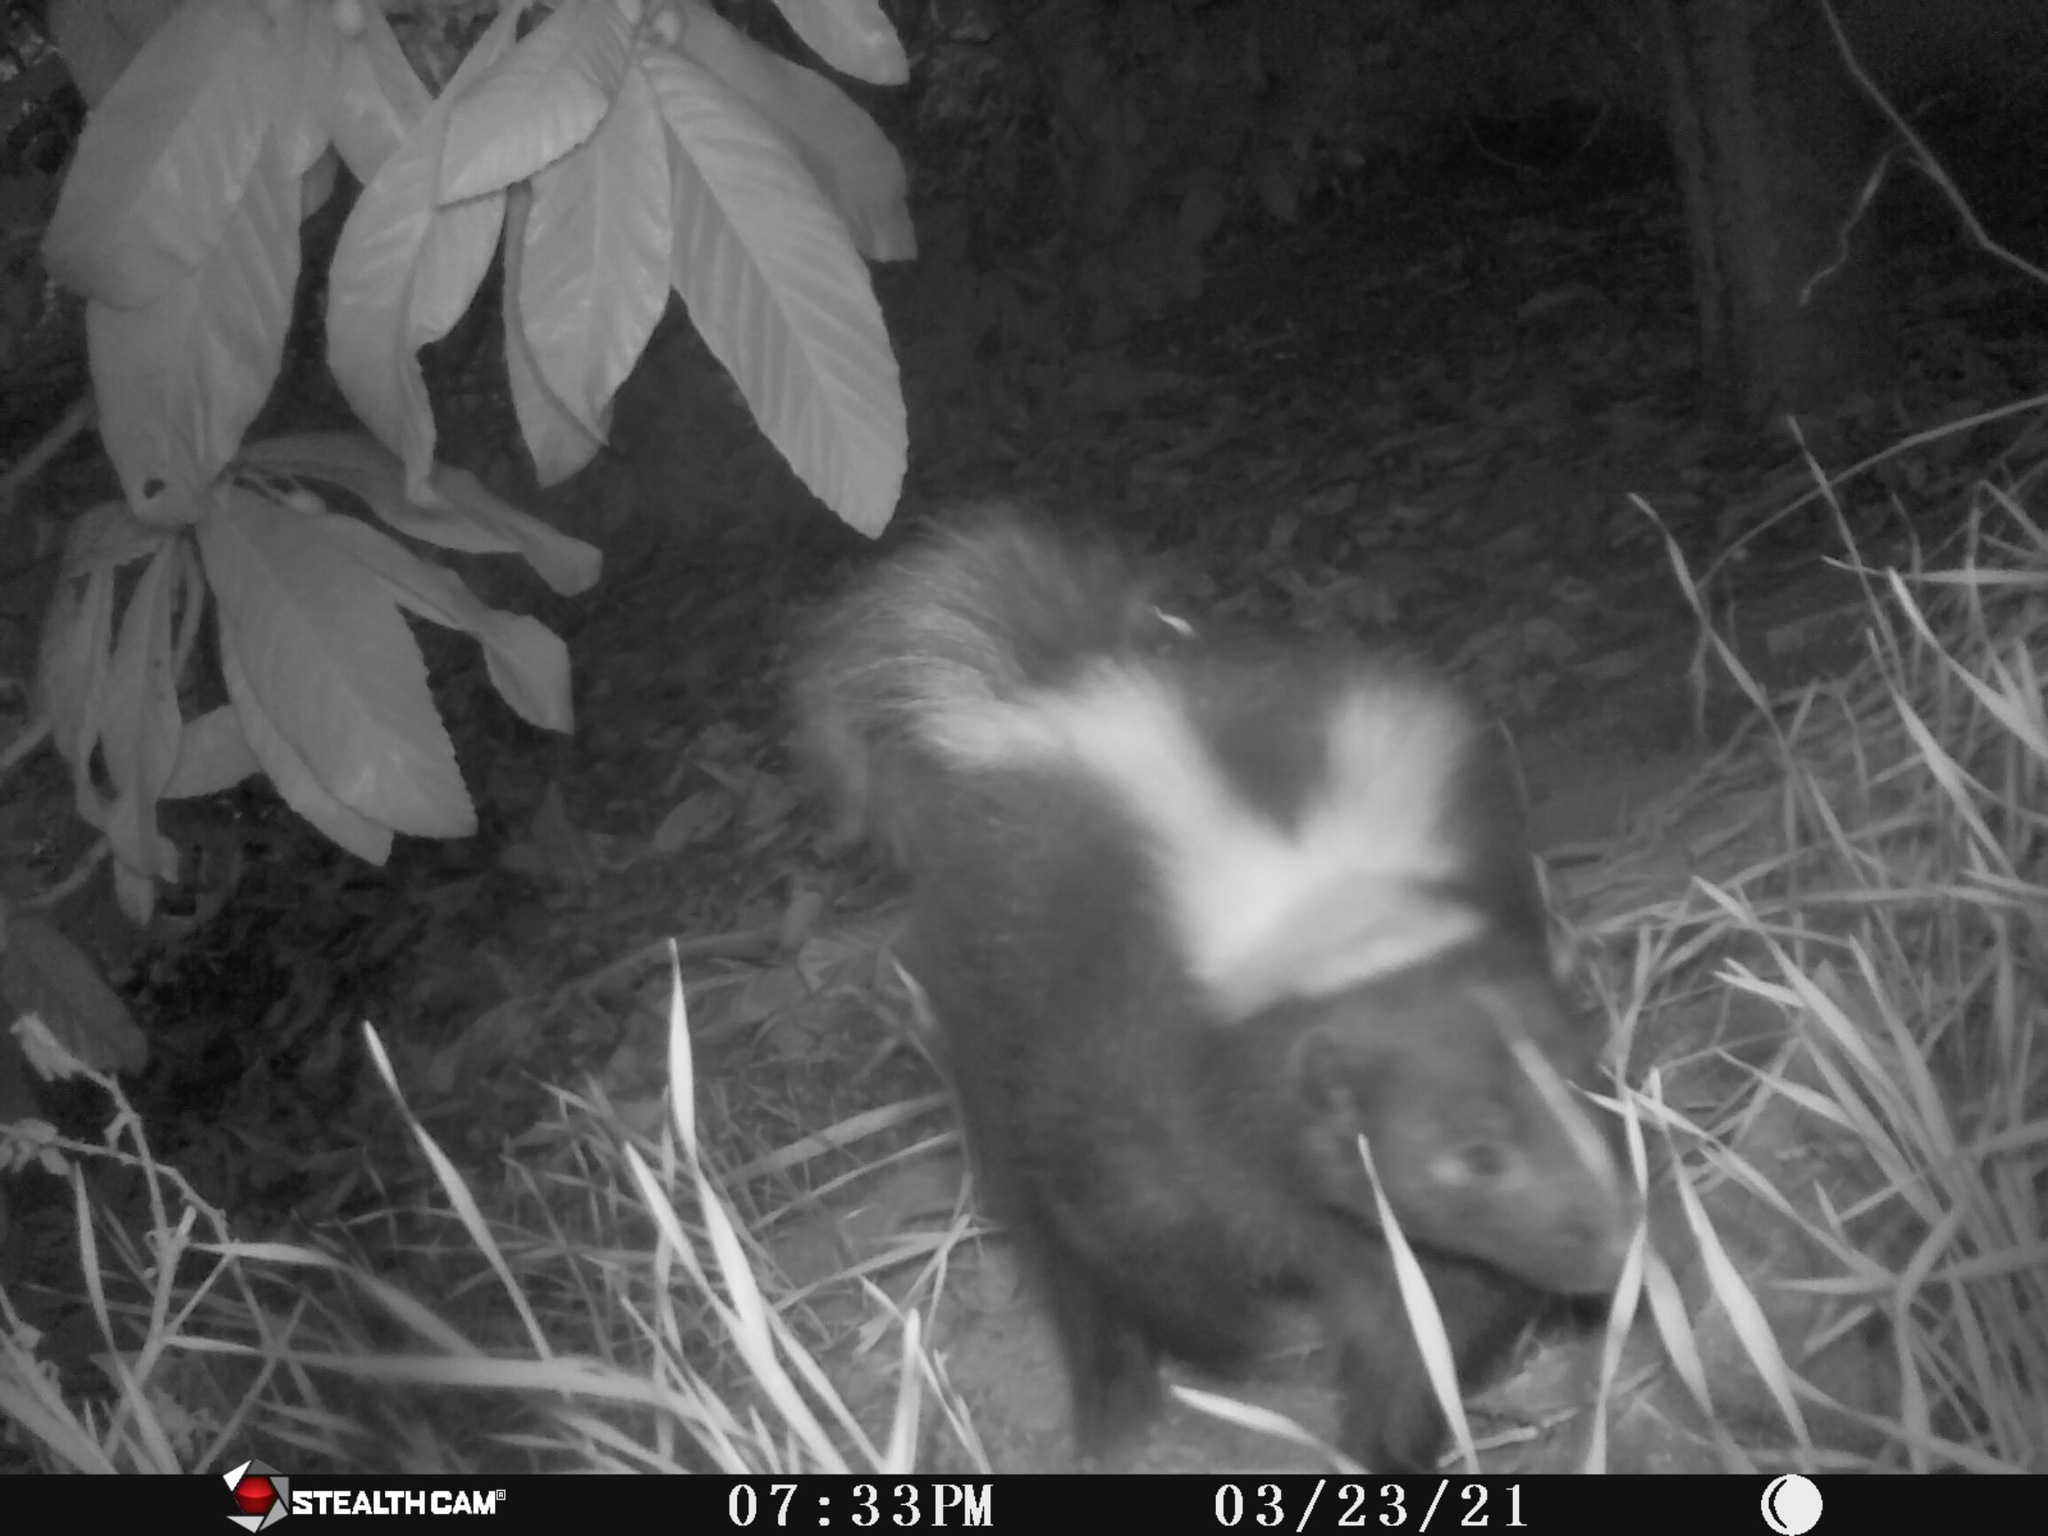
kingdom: Animalia
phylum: Chordata
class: Mammalia
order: Carnivora
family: Mephitidae
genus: Mephitis
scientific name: Mephitis mephitis
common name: Striped skunk
